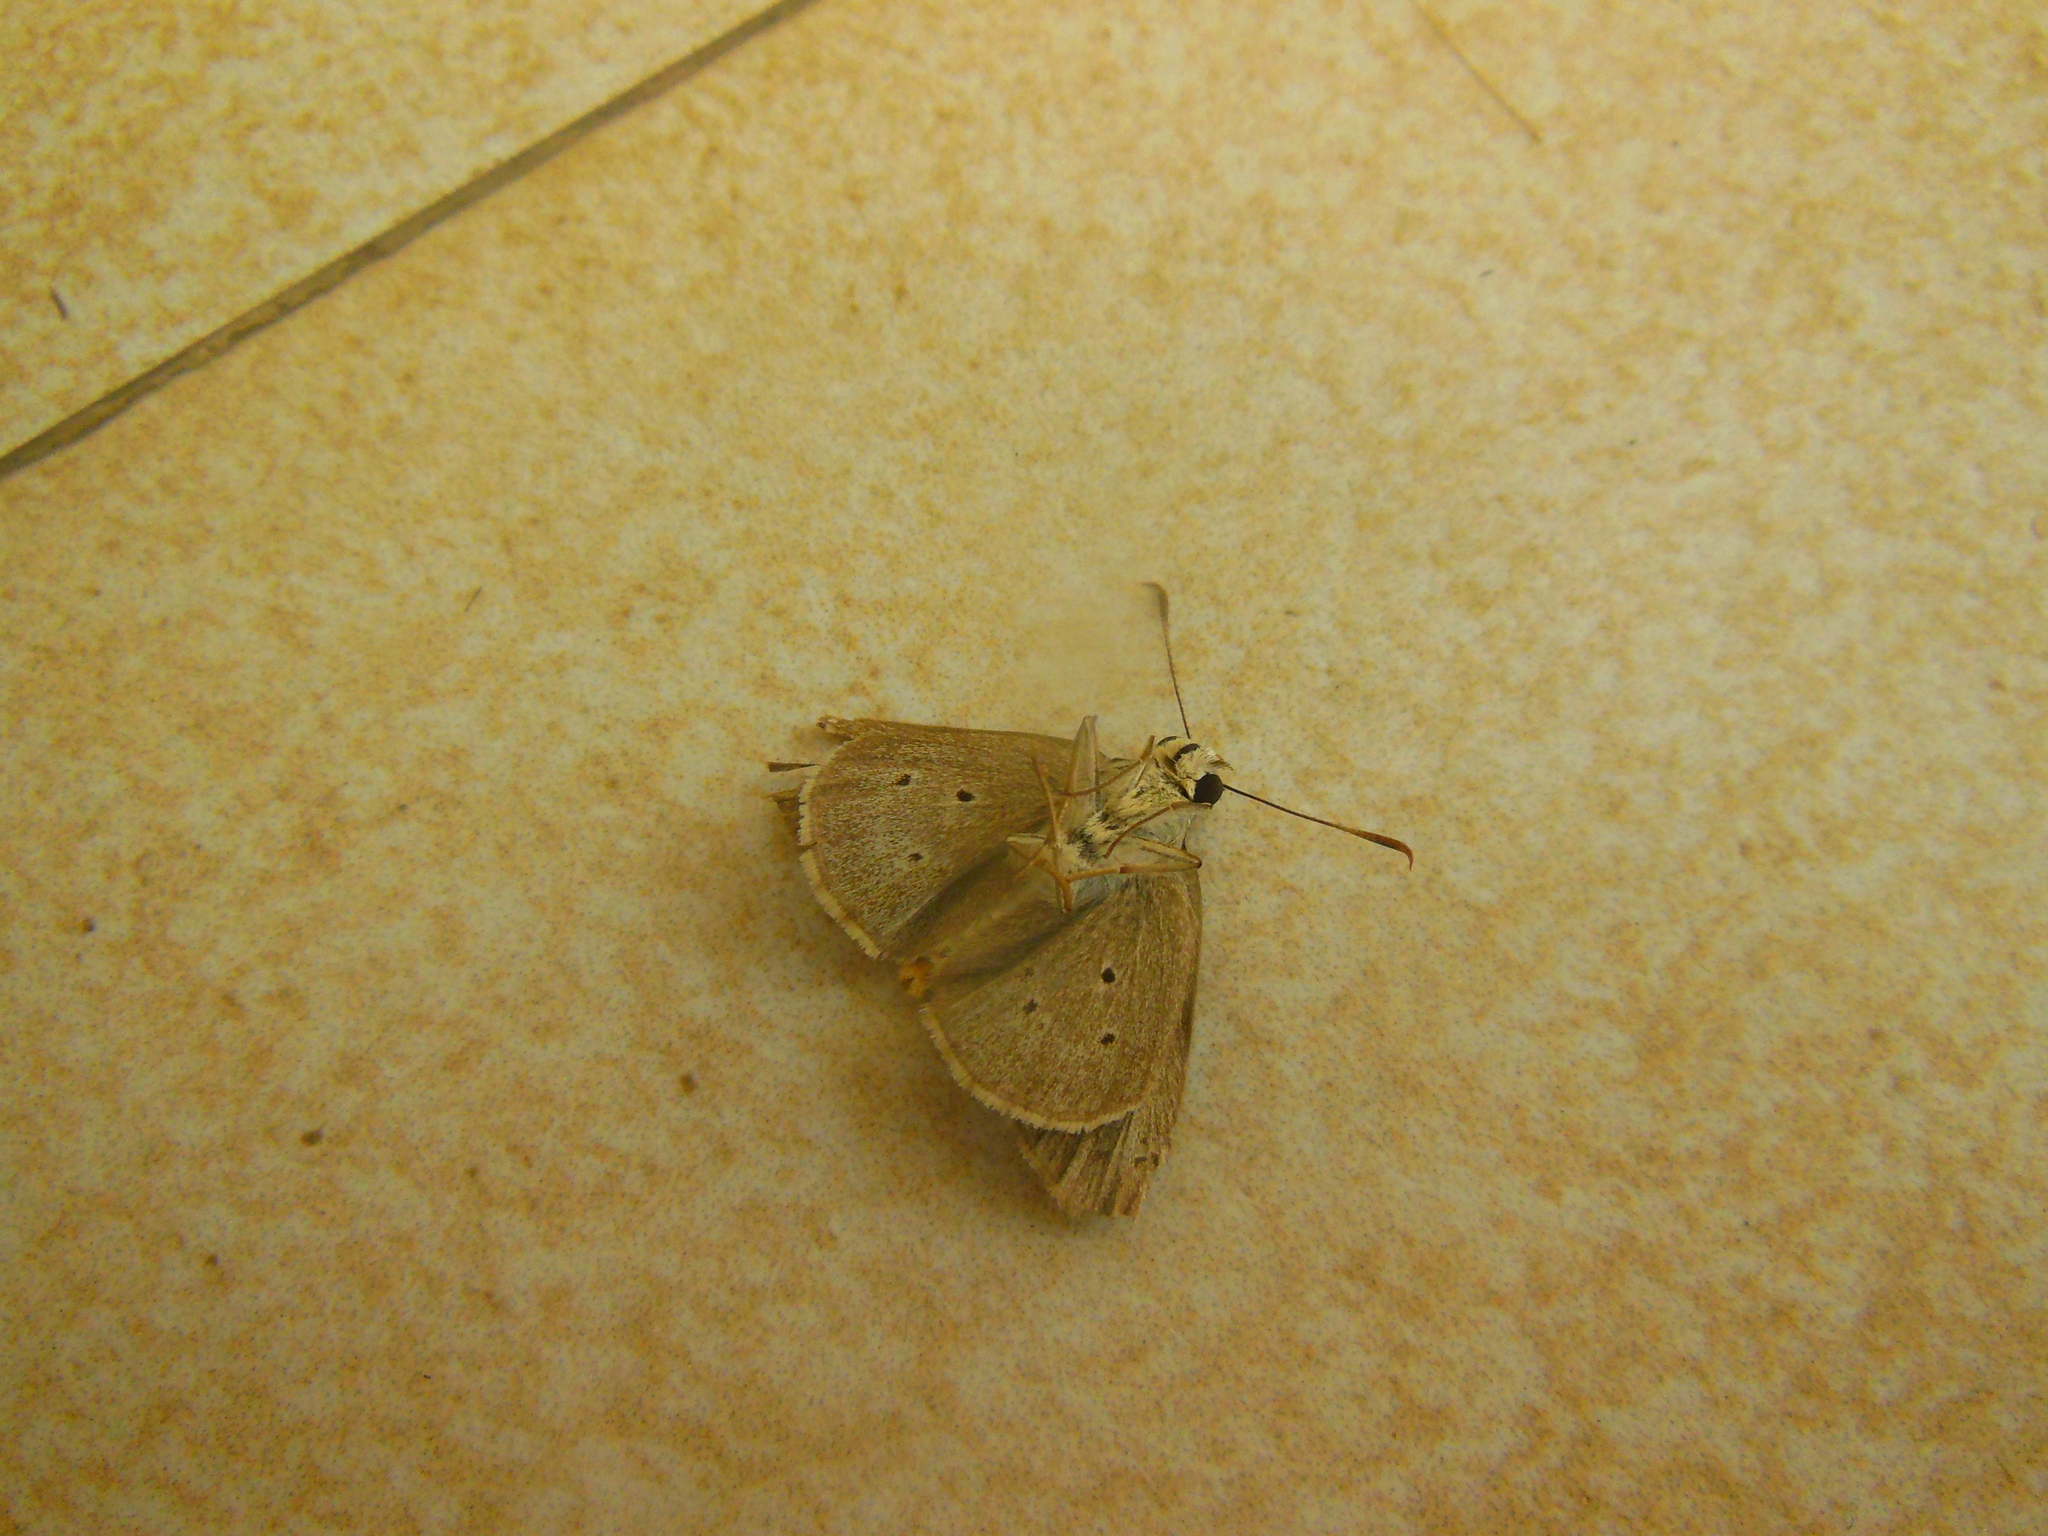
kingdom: Animalia
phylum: Arthropoda
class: Insecta
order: Lepidoptera
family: Hesperiidae
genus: Suastus
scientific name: Suastus gremius
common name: Indian palm bob
